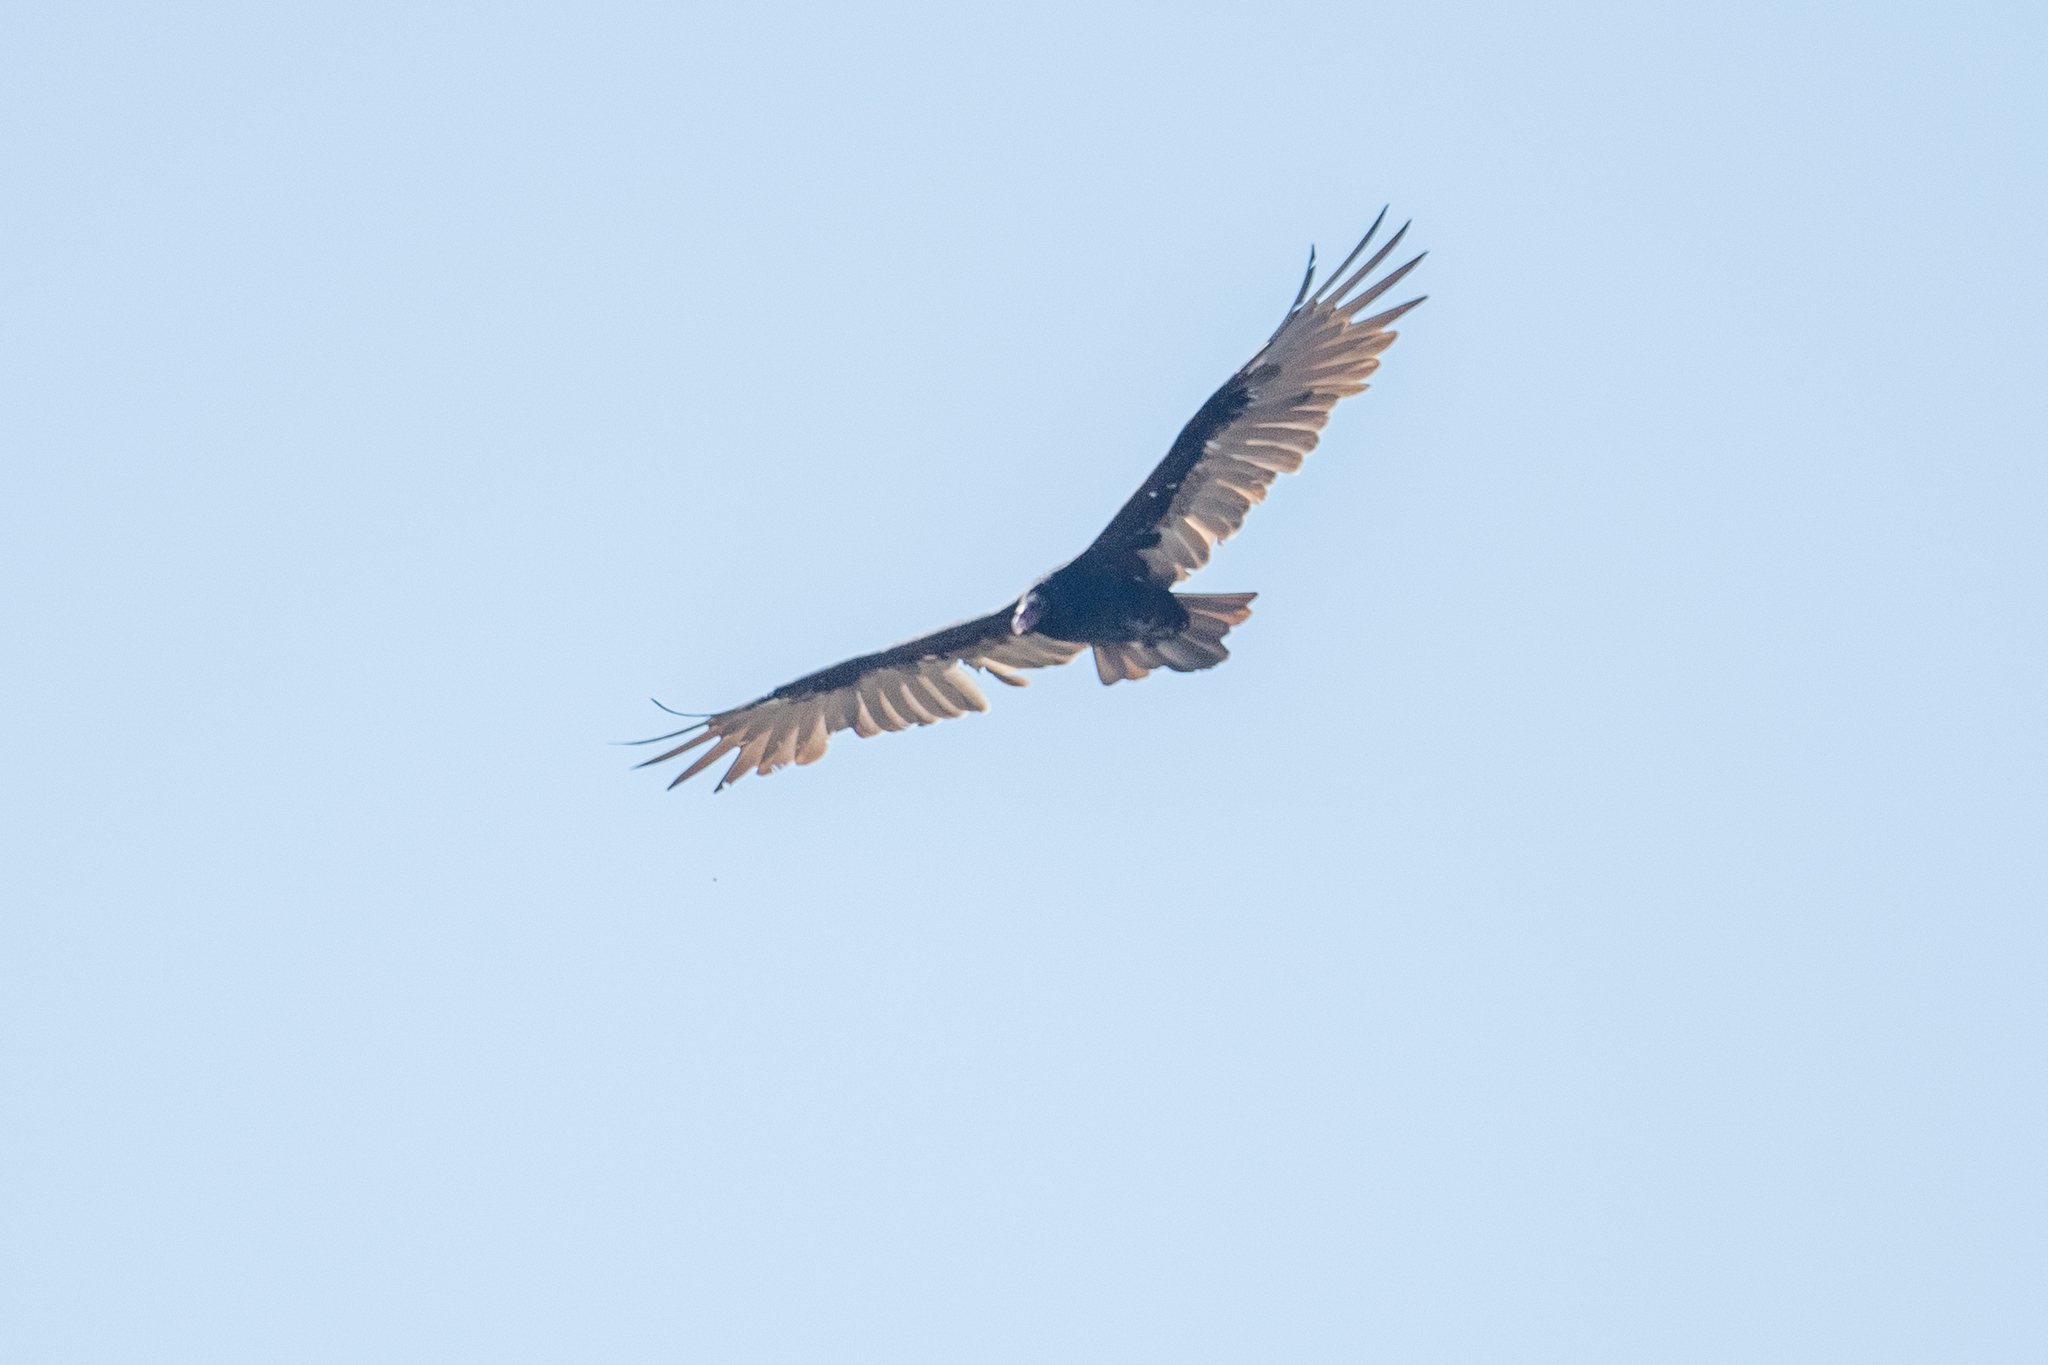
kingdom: Animalia
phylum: Chordata
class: Aves
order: Accipitriformes
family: Cathartidae
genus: Cathartes
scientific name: Cathartes aura
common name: Turkey vulture
